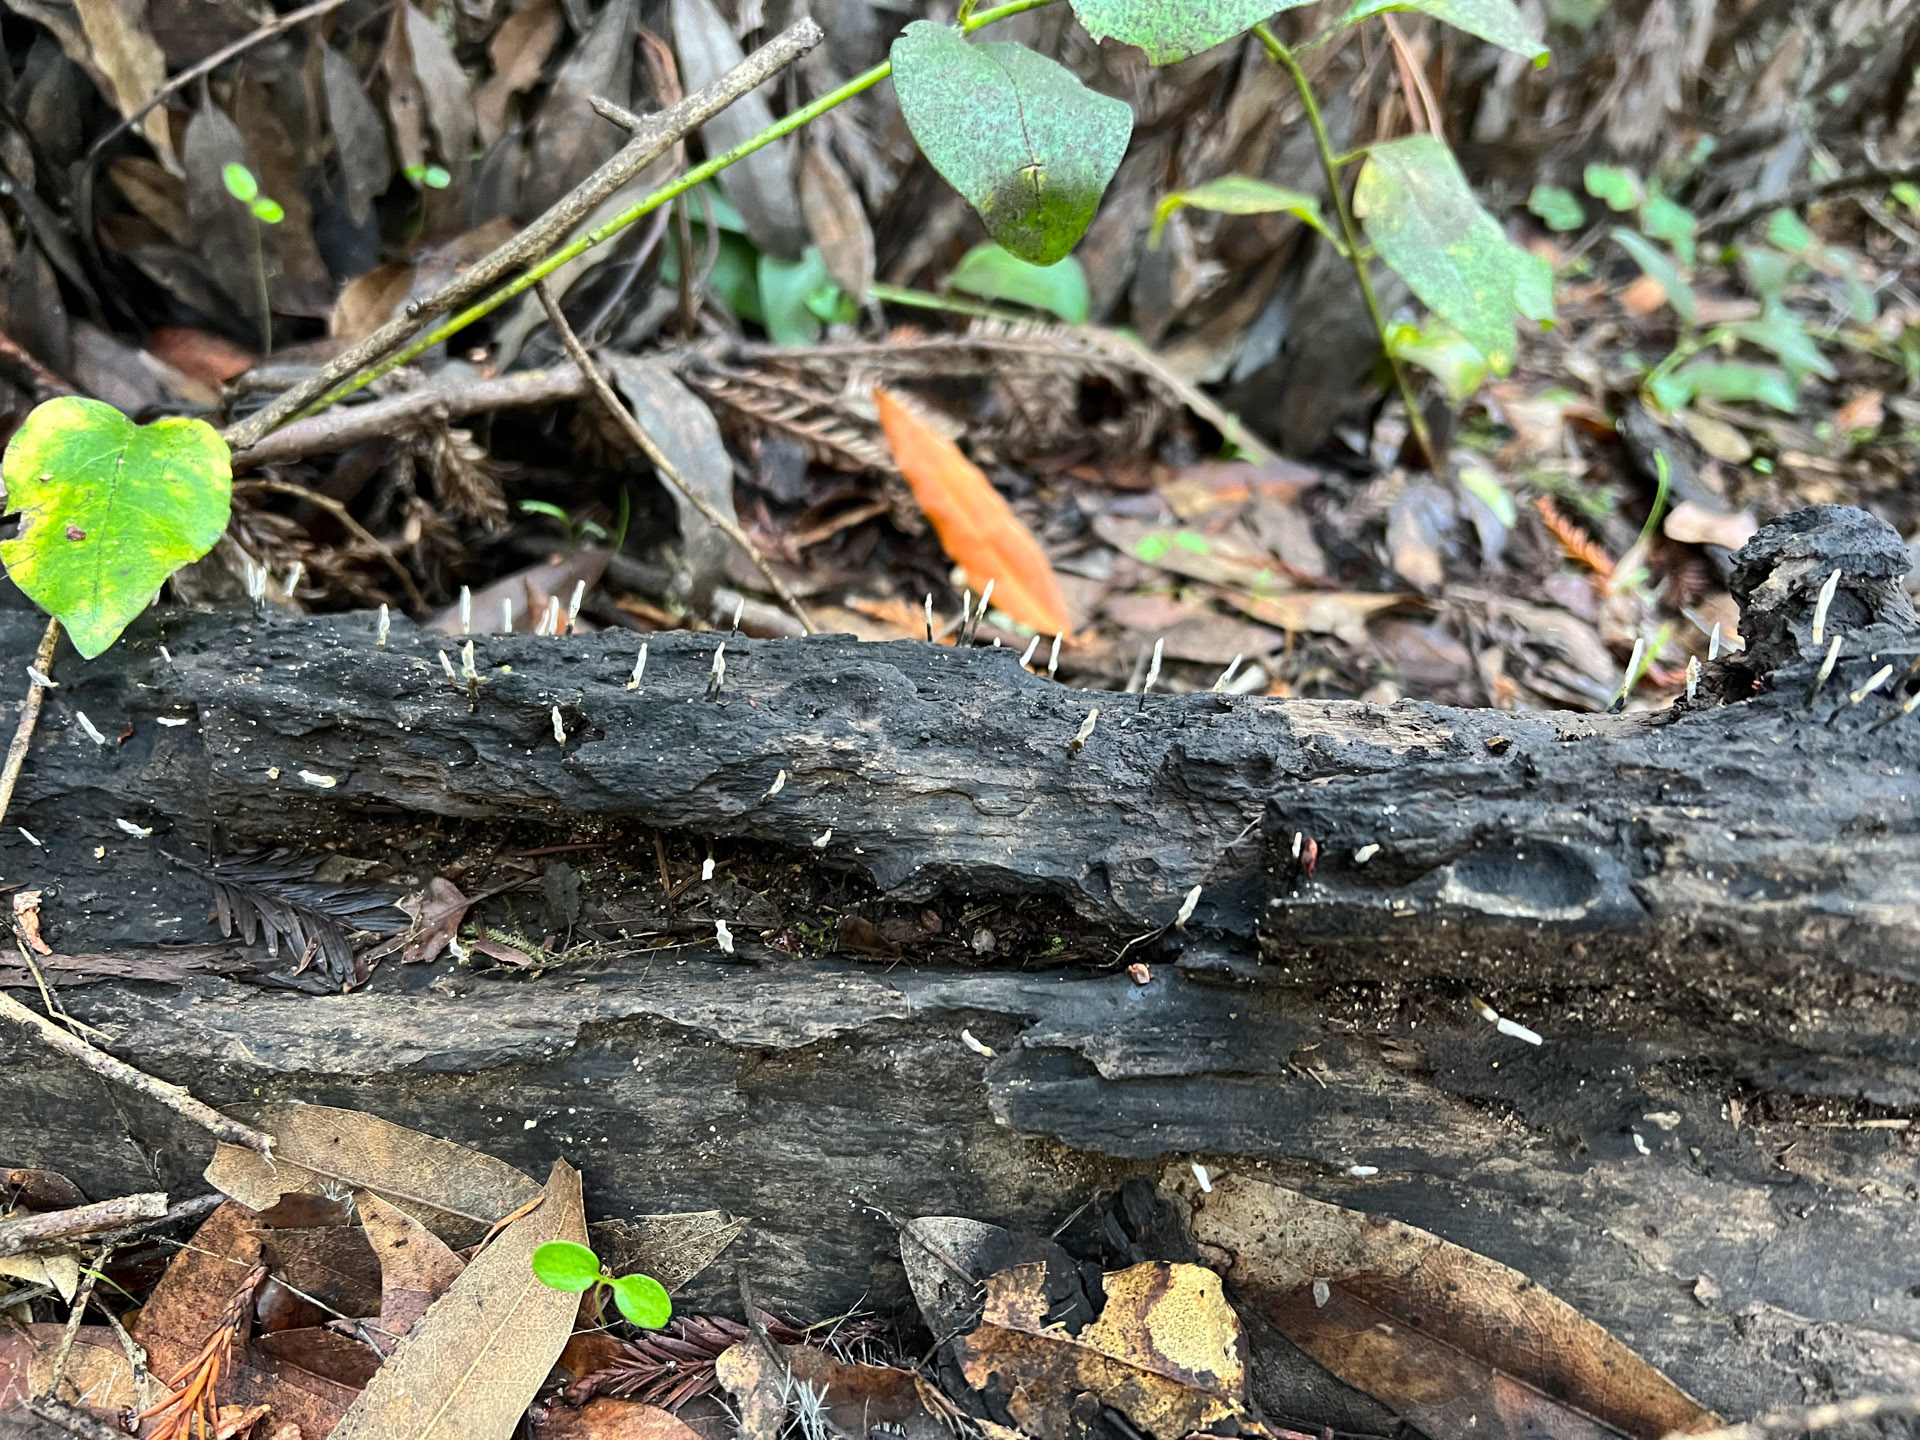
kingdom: Fungi
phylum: Ascomycota
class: Sordariomycetes
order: Xylariales
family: Xylariaceae
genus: Xylaria
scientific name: Xylaria hypoxylon
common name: Candle-snuff fungus
